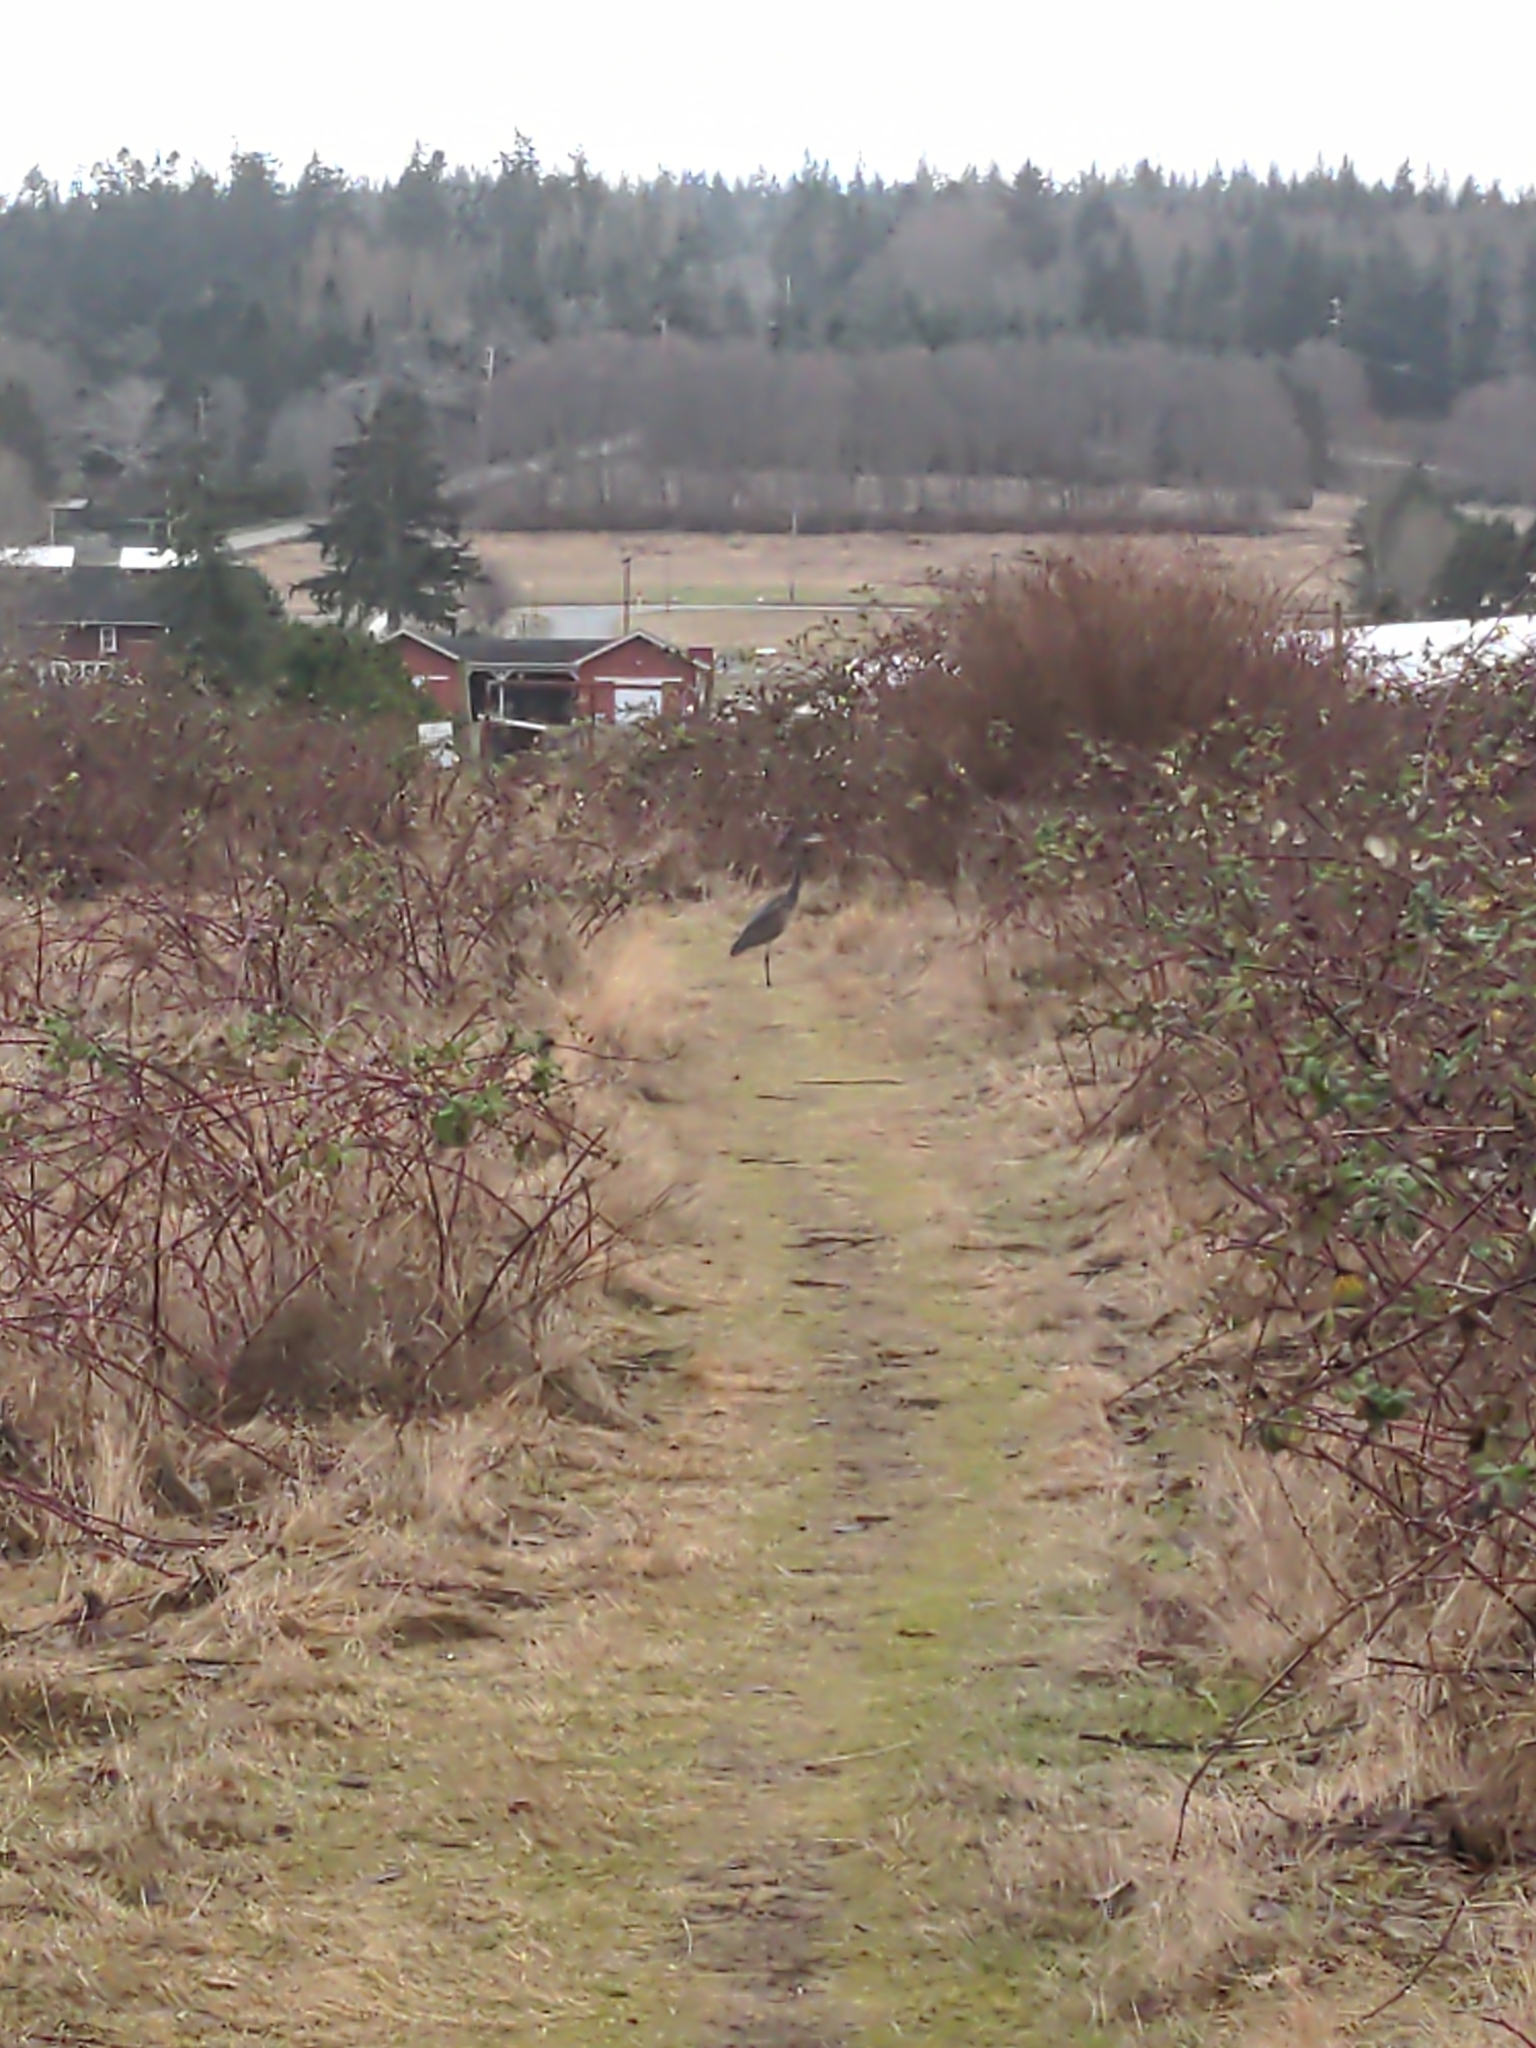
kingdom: Animalia
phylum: Chordata
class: Aves
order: Pelecaniformes
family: Ardeidae
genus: Ardea
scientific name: Ardea herodias
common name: Great blue heron
